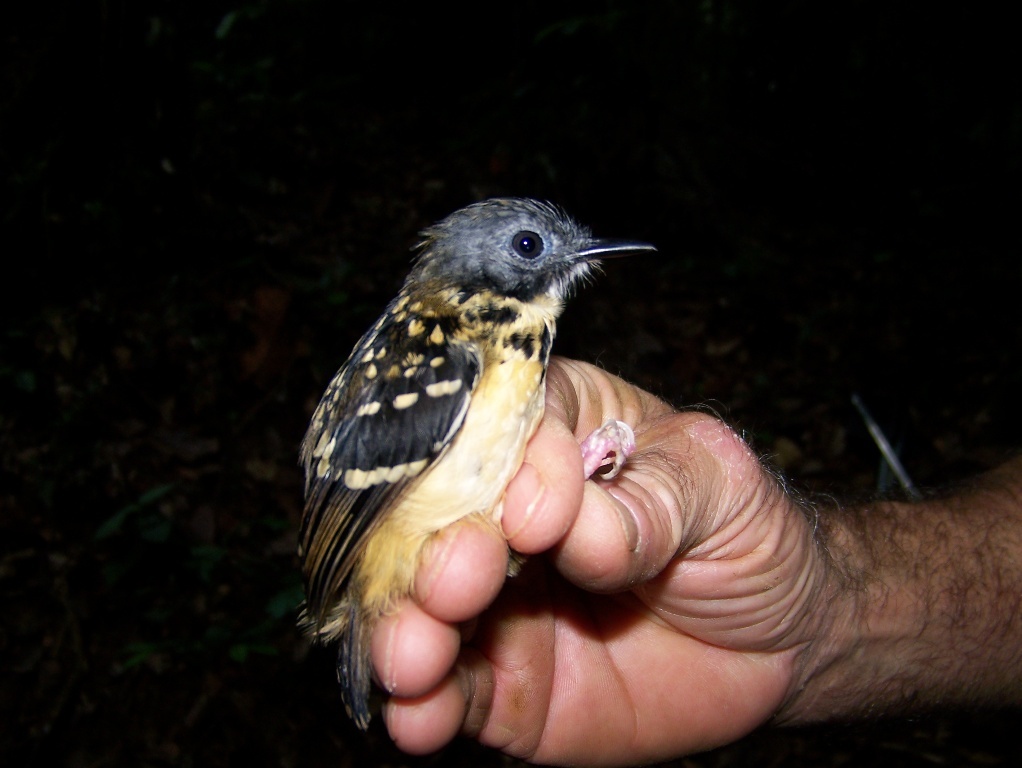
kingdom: Animalia
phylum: Chordata
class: Aves
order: Passeriformes
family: Thamnophilidae
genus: Hylophylax
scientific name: Hylophylax naevius
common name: Spot-backed antbird
